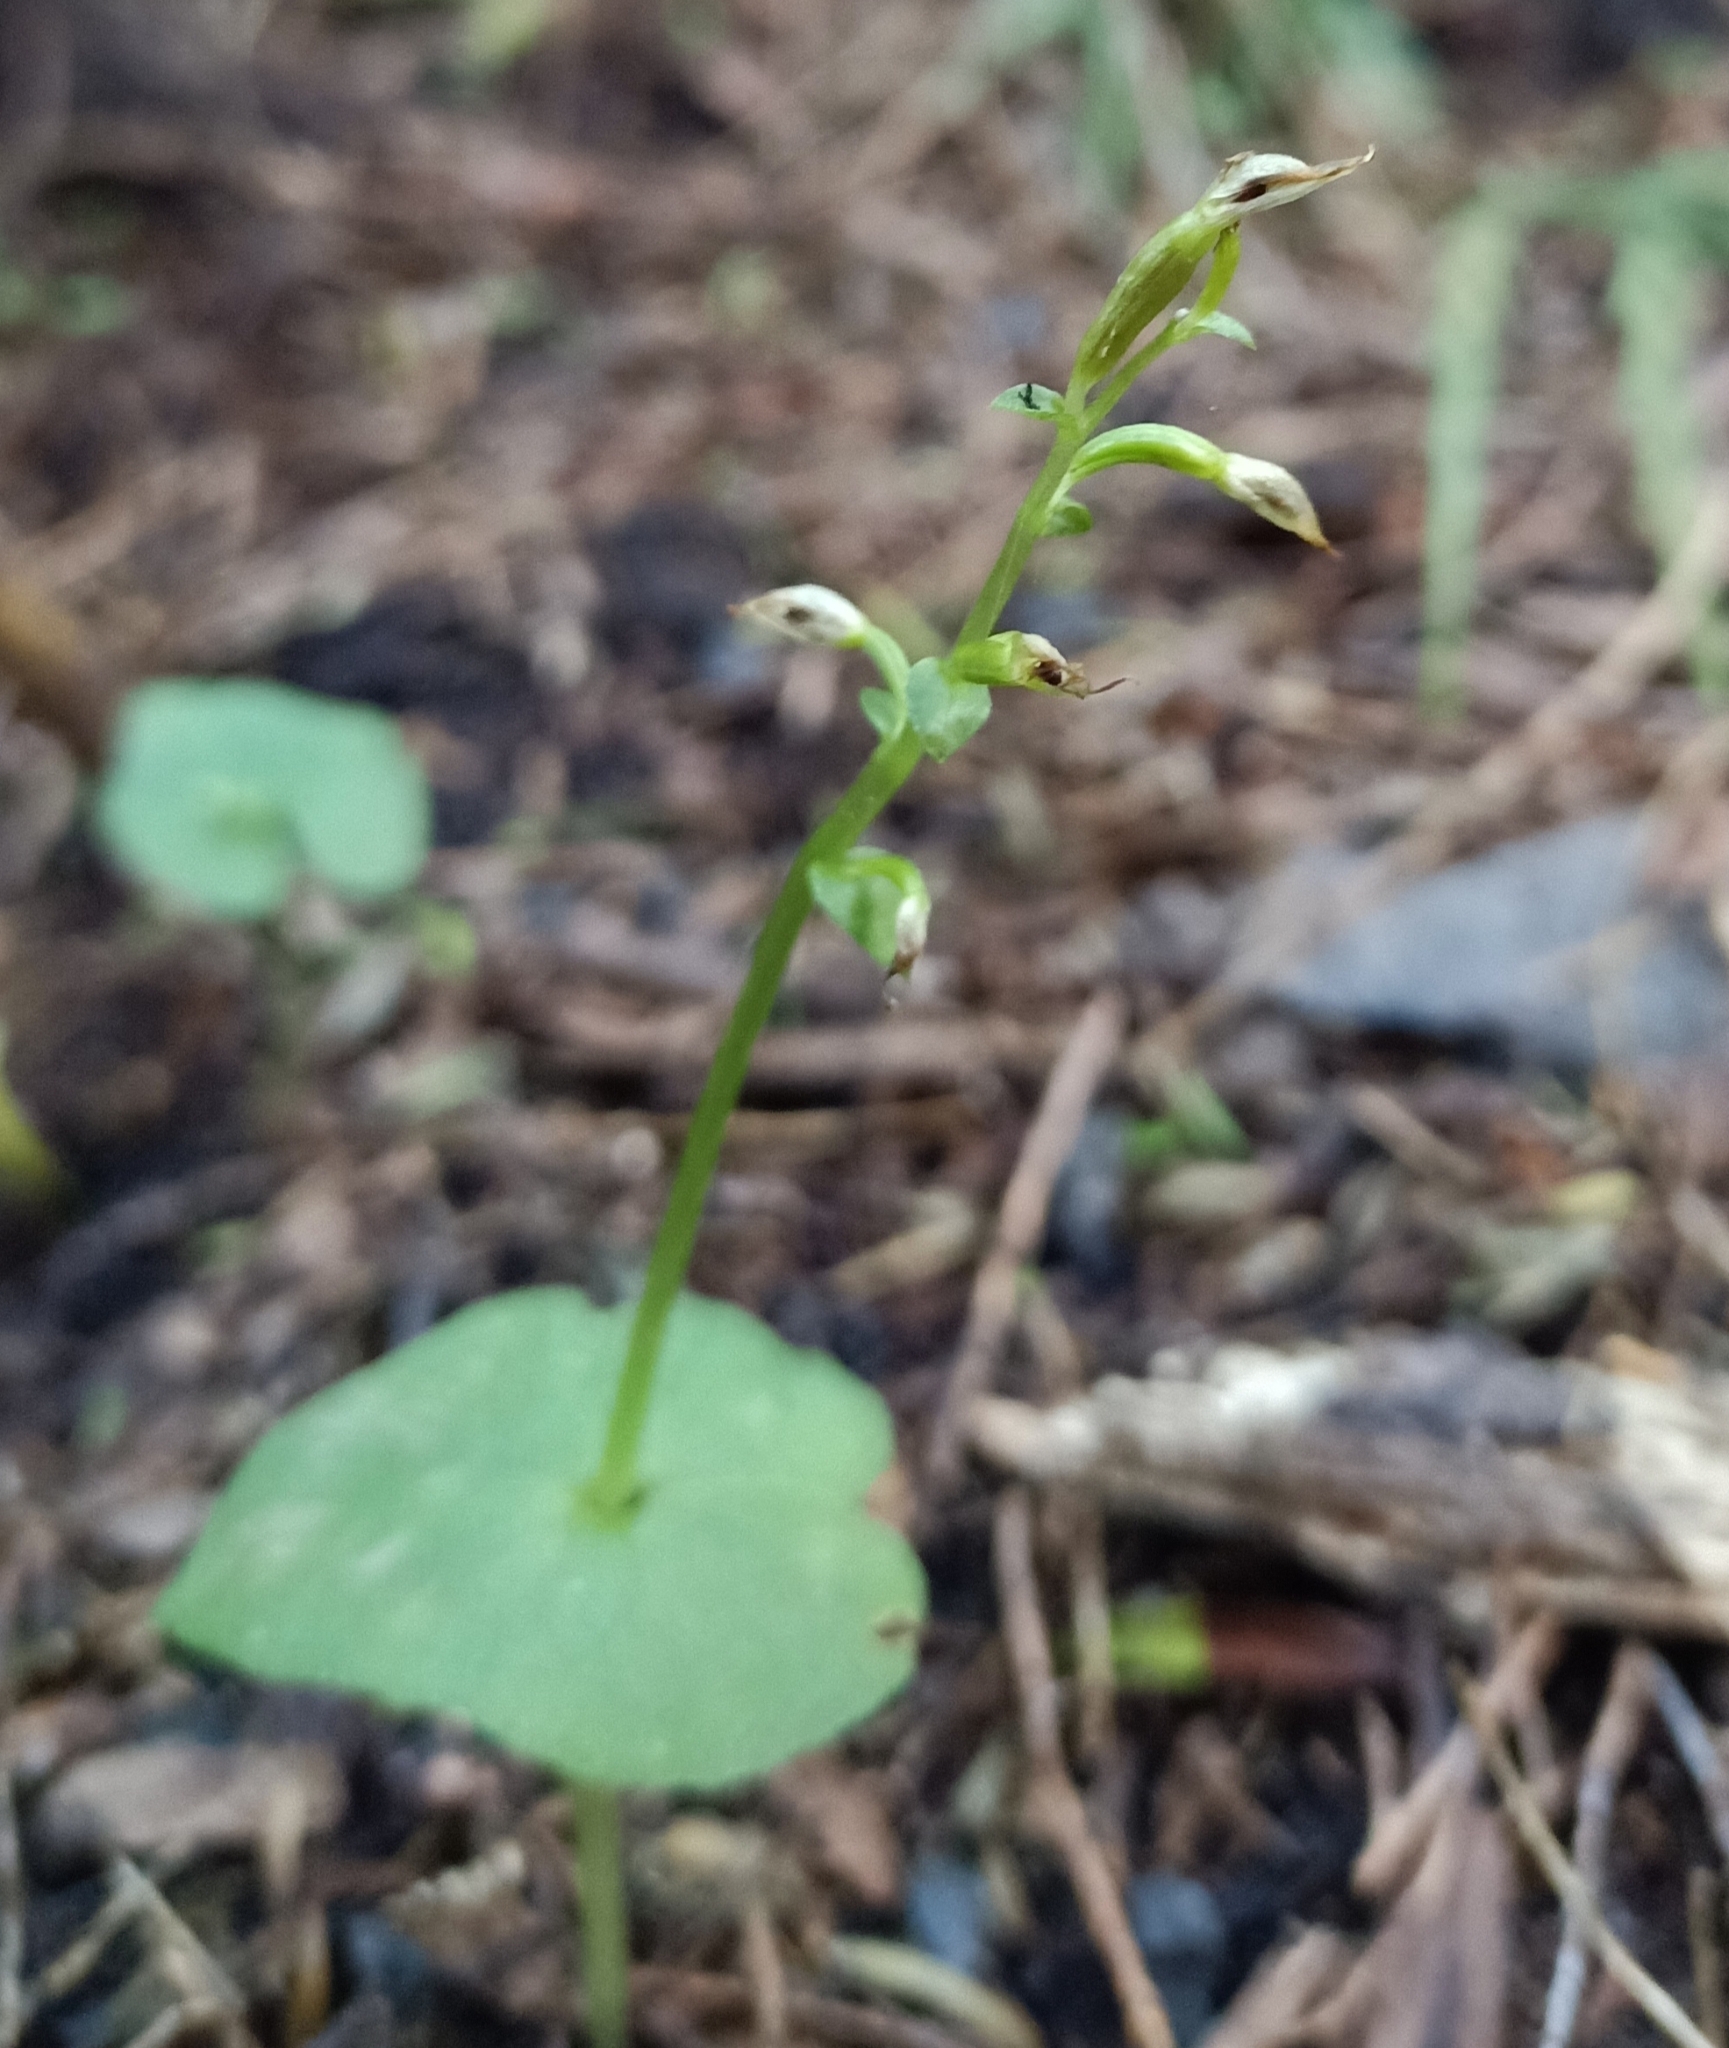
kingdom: Plantae
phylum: Tracheophyta
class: Liliopsida
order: Asparagales
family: Orchidaceae
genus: Acianthus
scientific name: Acianthus sinclairii
